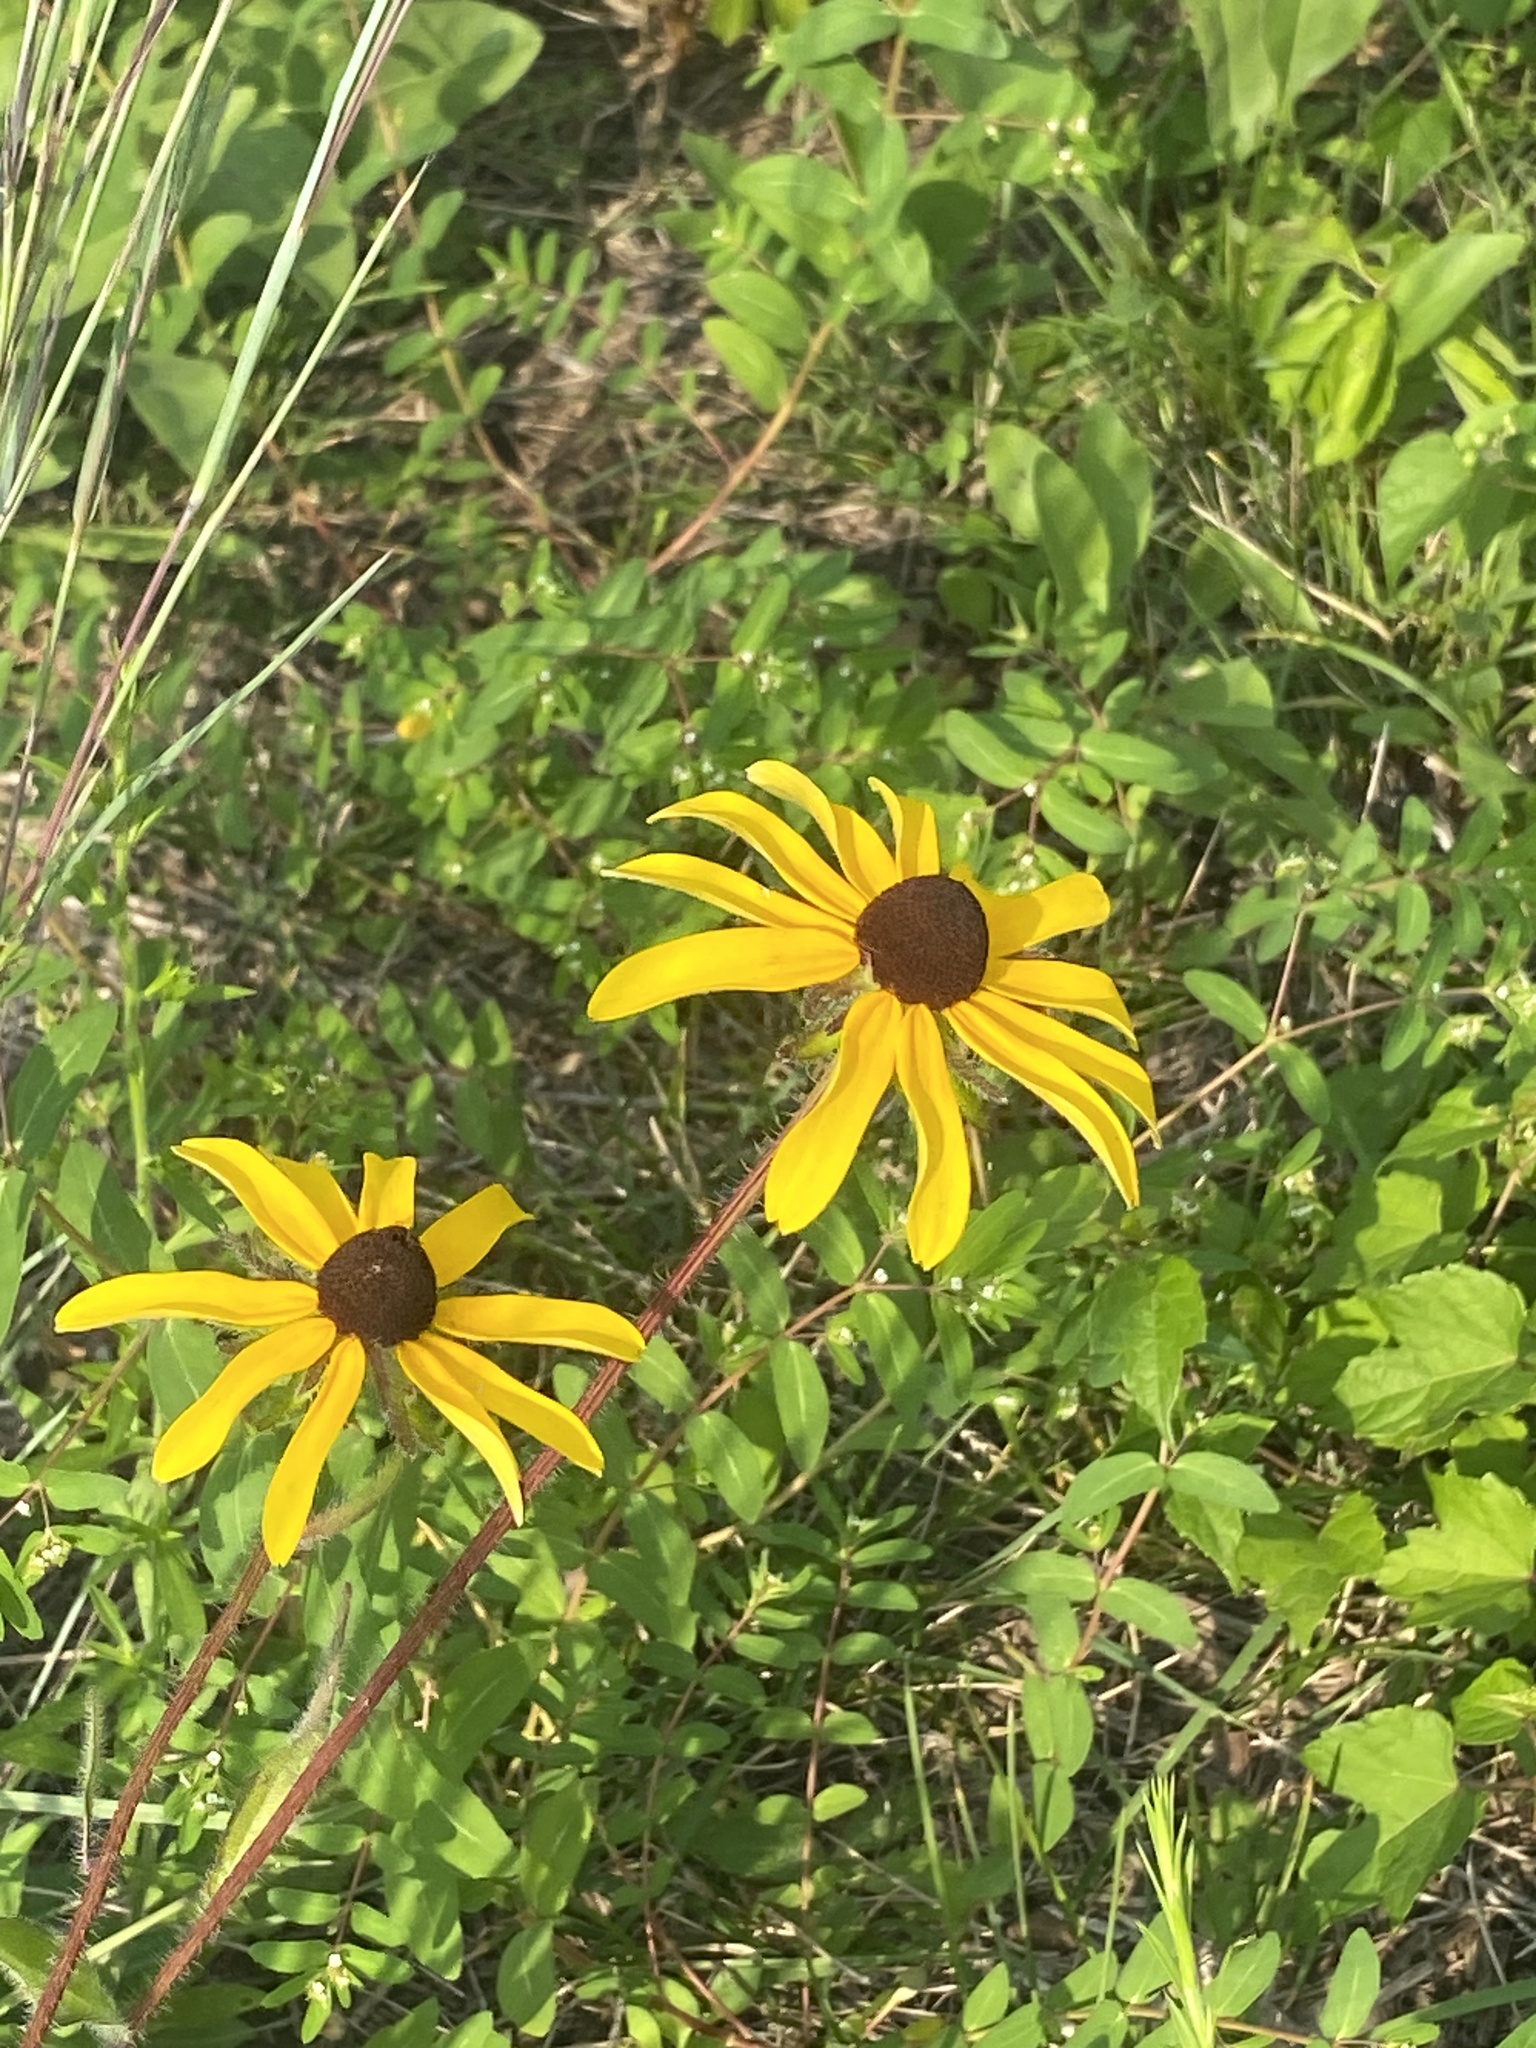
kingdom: Plantae
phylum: Tracheophyta
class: Magnoliopsida
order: Asterales
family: Asteraceae
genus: Rudbeckia
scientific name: Rudbeckia hirta
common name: Black-eyed-susan
